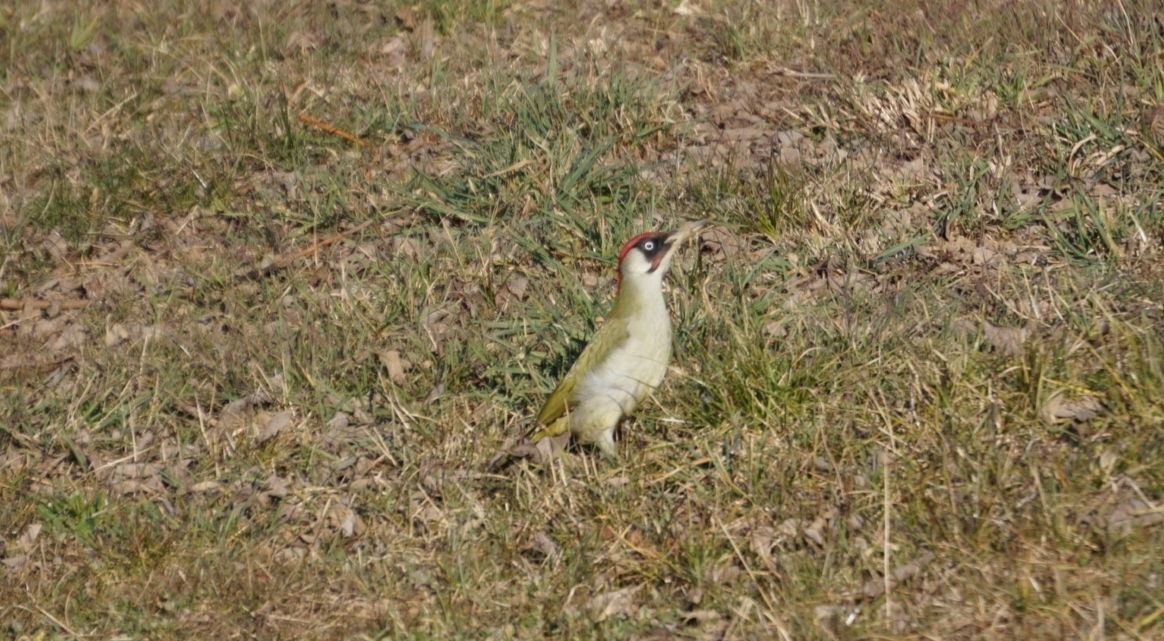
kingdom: Animalia
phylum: Chordata
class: Aves
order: Piciformes
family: Picidae
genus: Picus
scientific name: Picus viridis
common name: European green woodpecker
